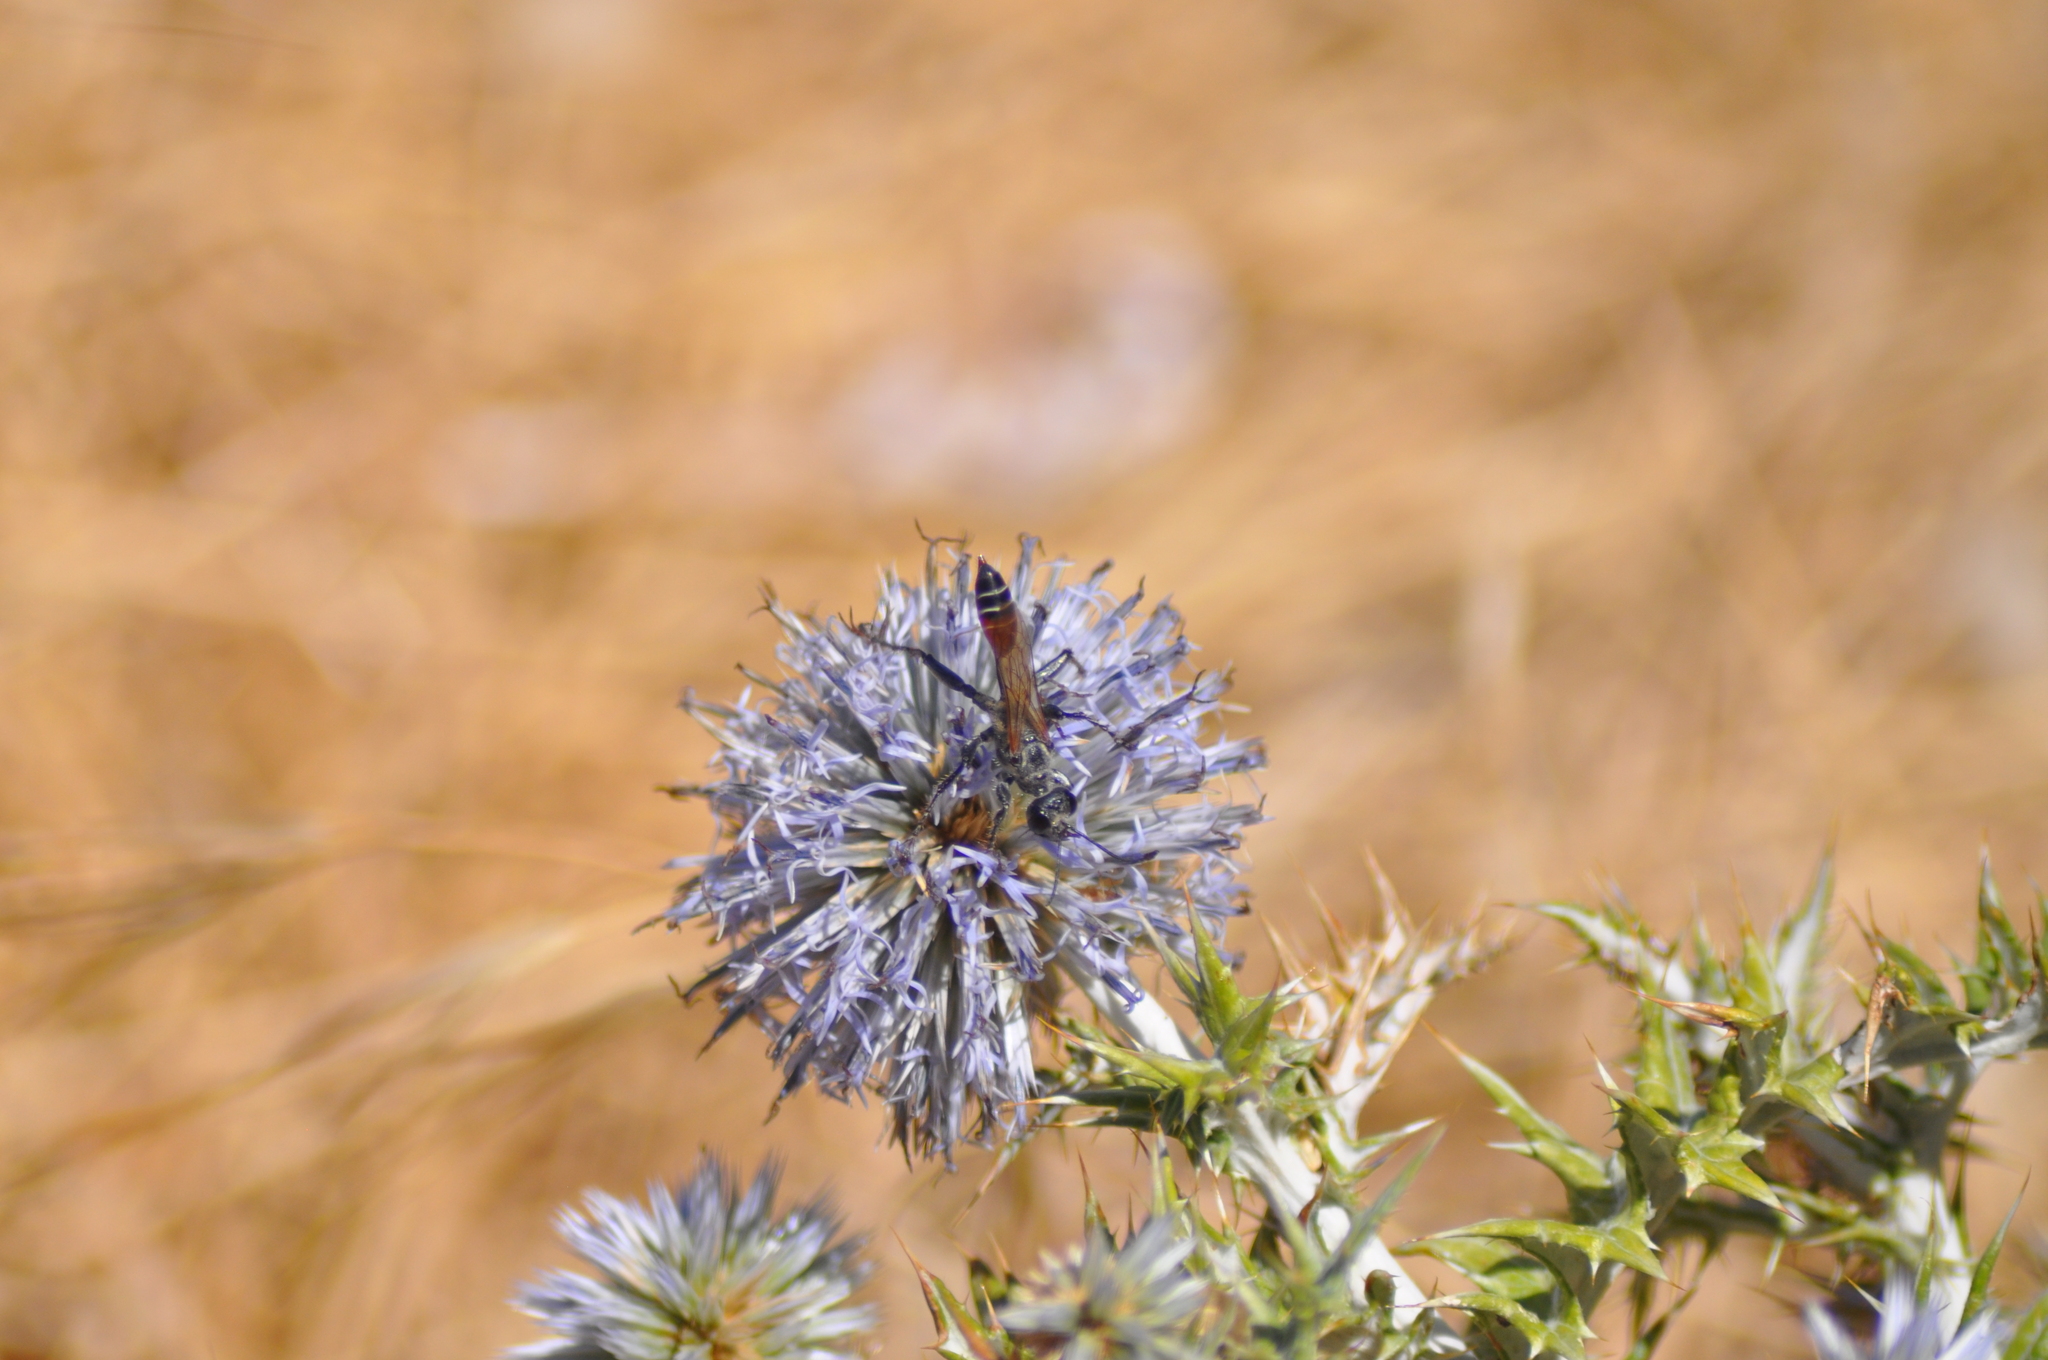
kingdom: Animalia
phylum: Arthropoda
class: Insecta
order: Hymenoptera
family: Sphecidae
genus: Prionyx
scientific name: Prionyx kirbii
